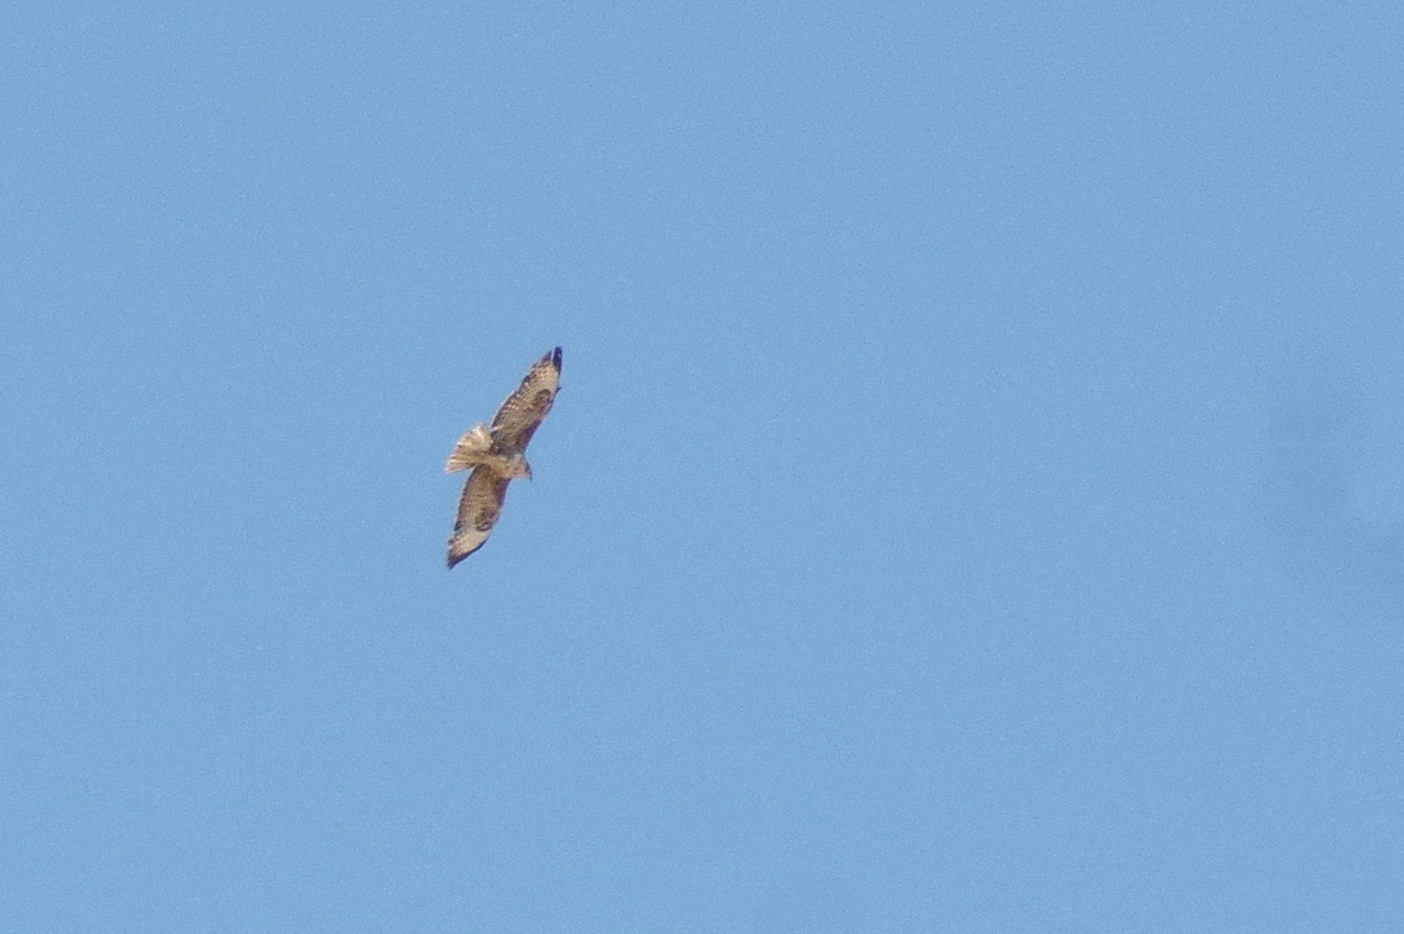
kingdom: Animalia
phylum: Chordata
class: Aves
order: Accipitriformes
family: Accipitridae
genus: Buteo
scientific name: Buteo buteo
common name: Common buzzard
